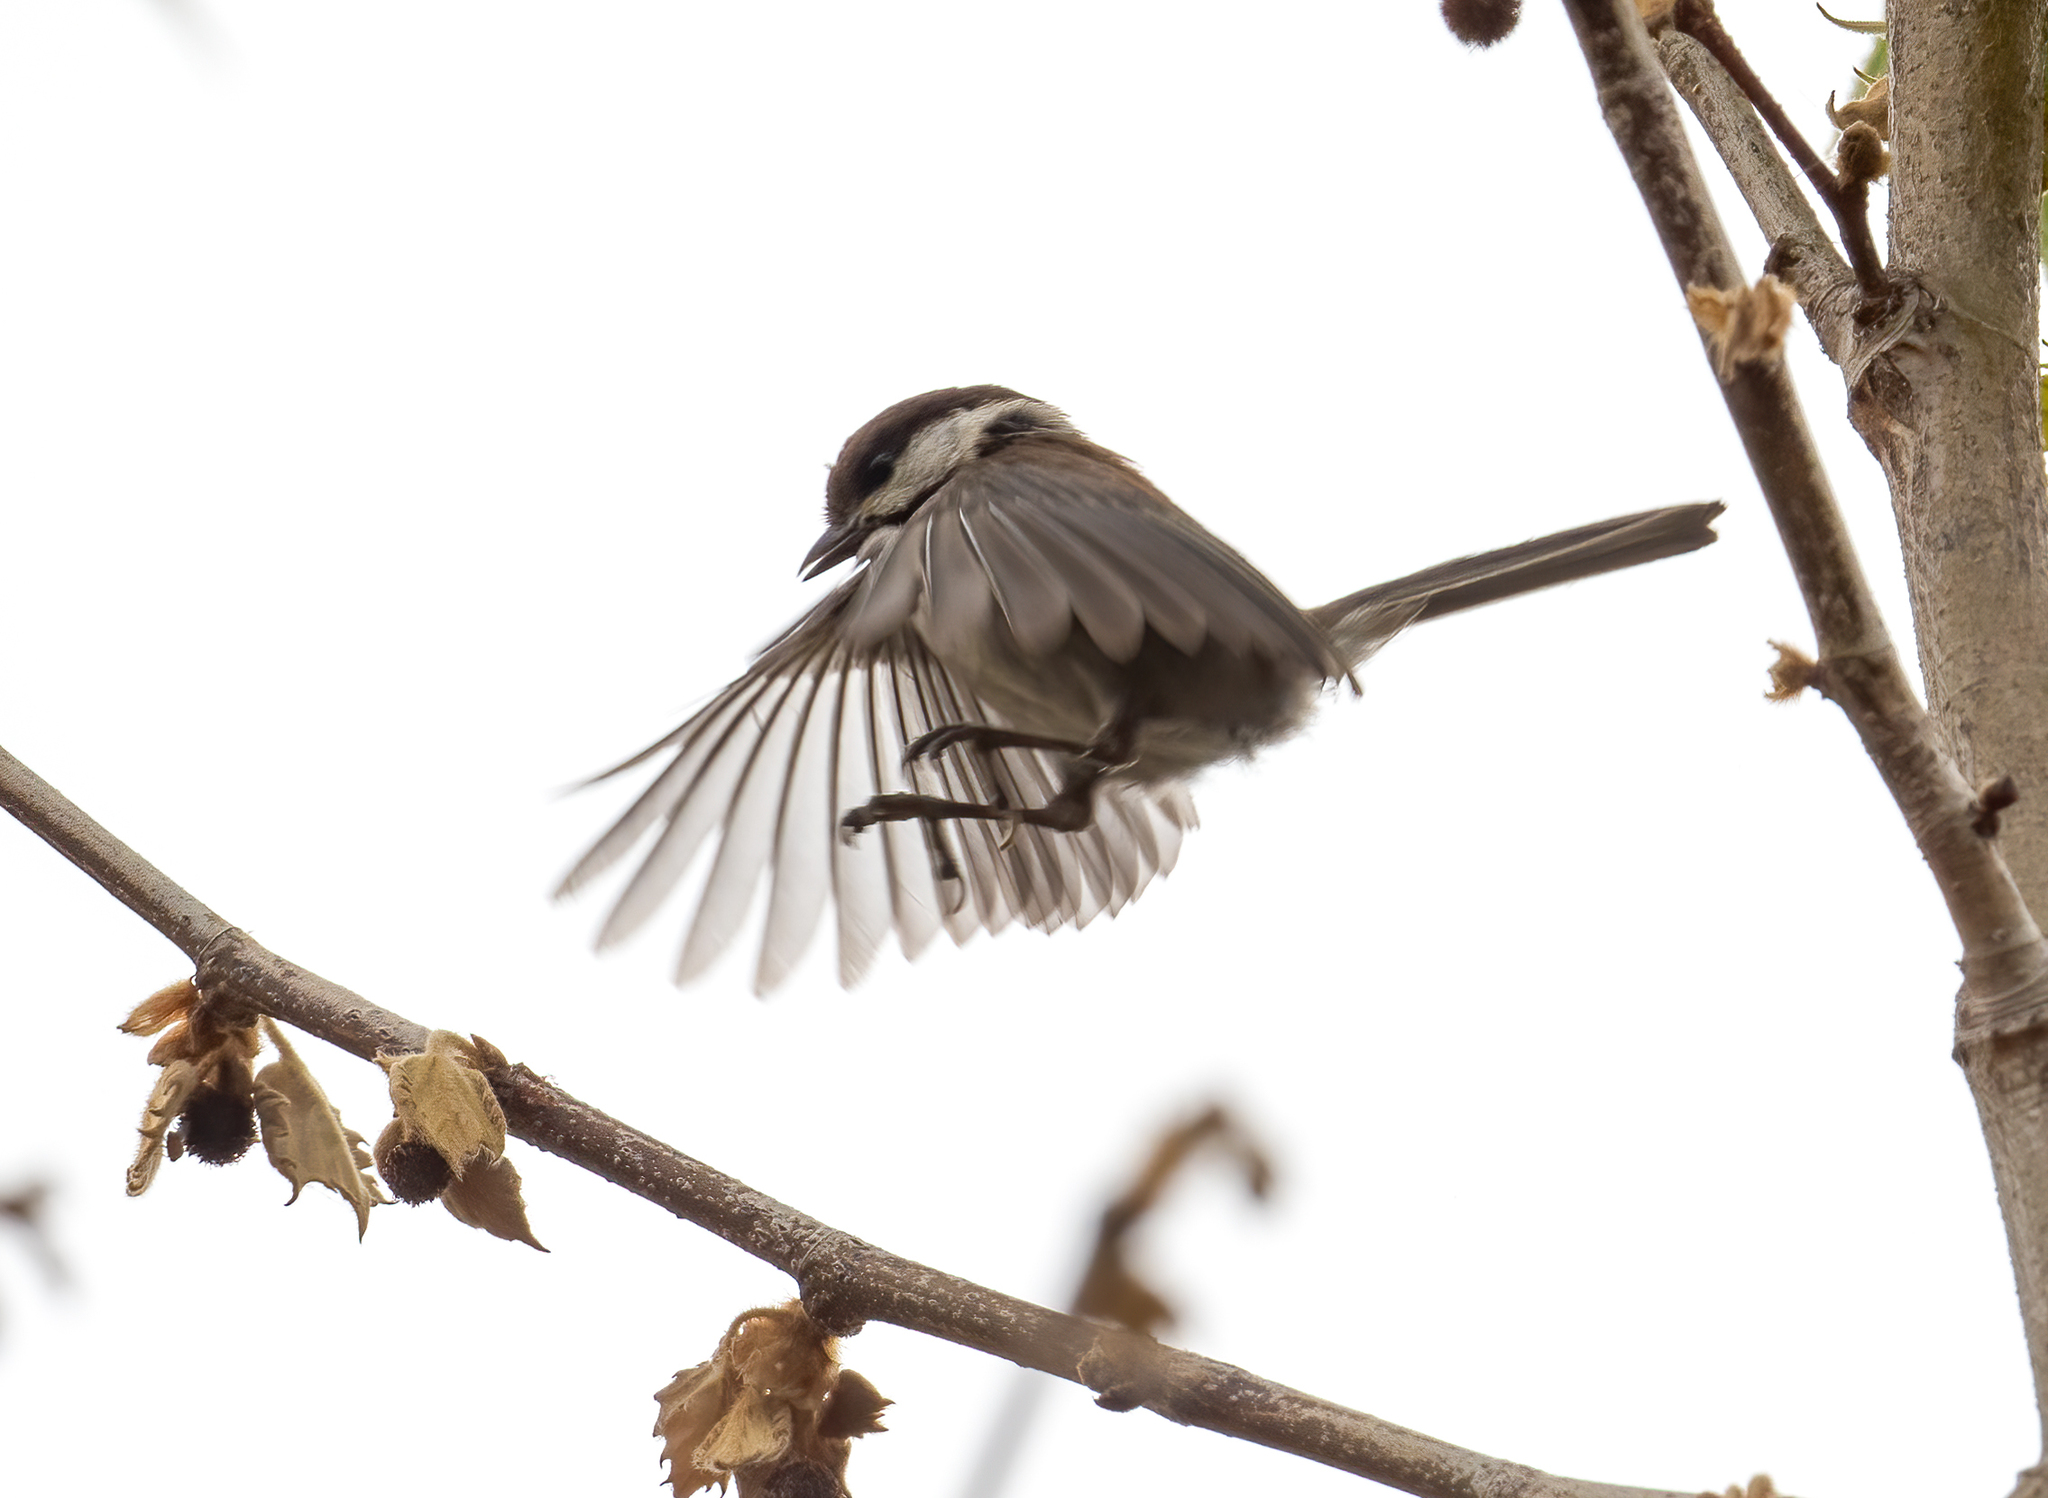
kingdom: Animalia
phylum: Chordata
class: Aves
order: Passeriformes
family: Paridae
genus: Poecile
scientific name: Poecile rufescens
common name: Chestnut-backed chickadee
